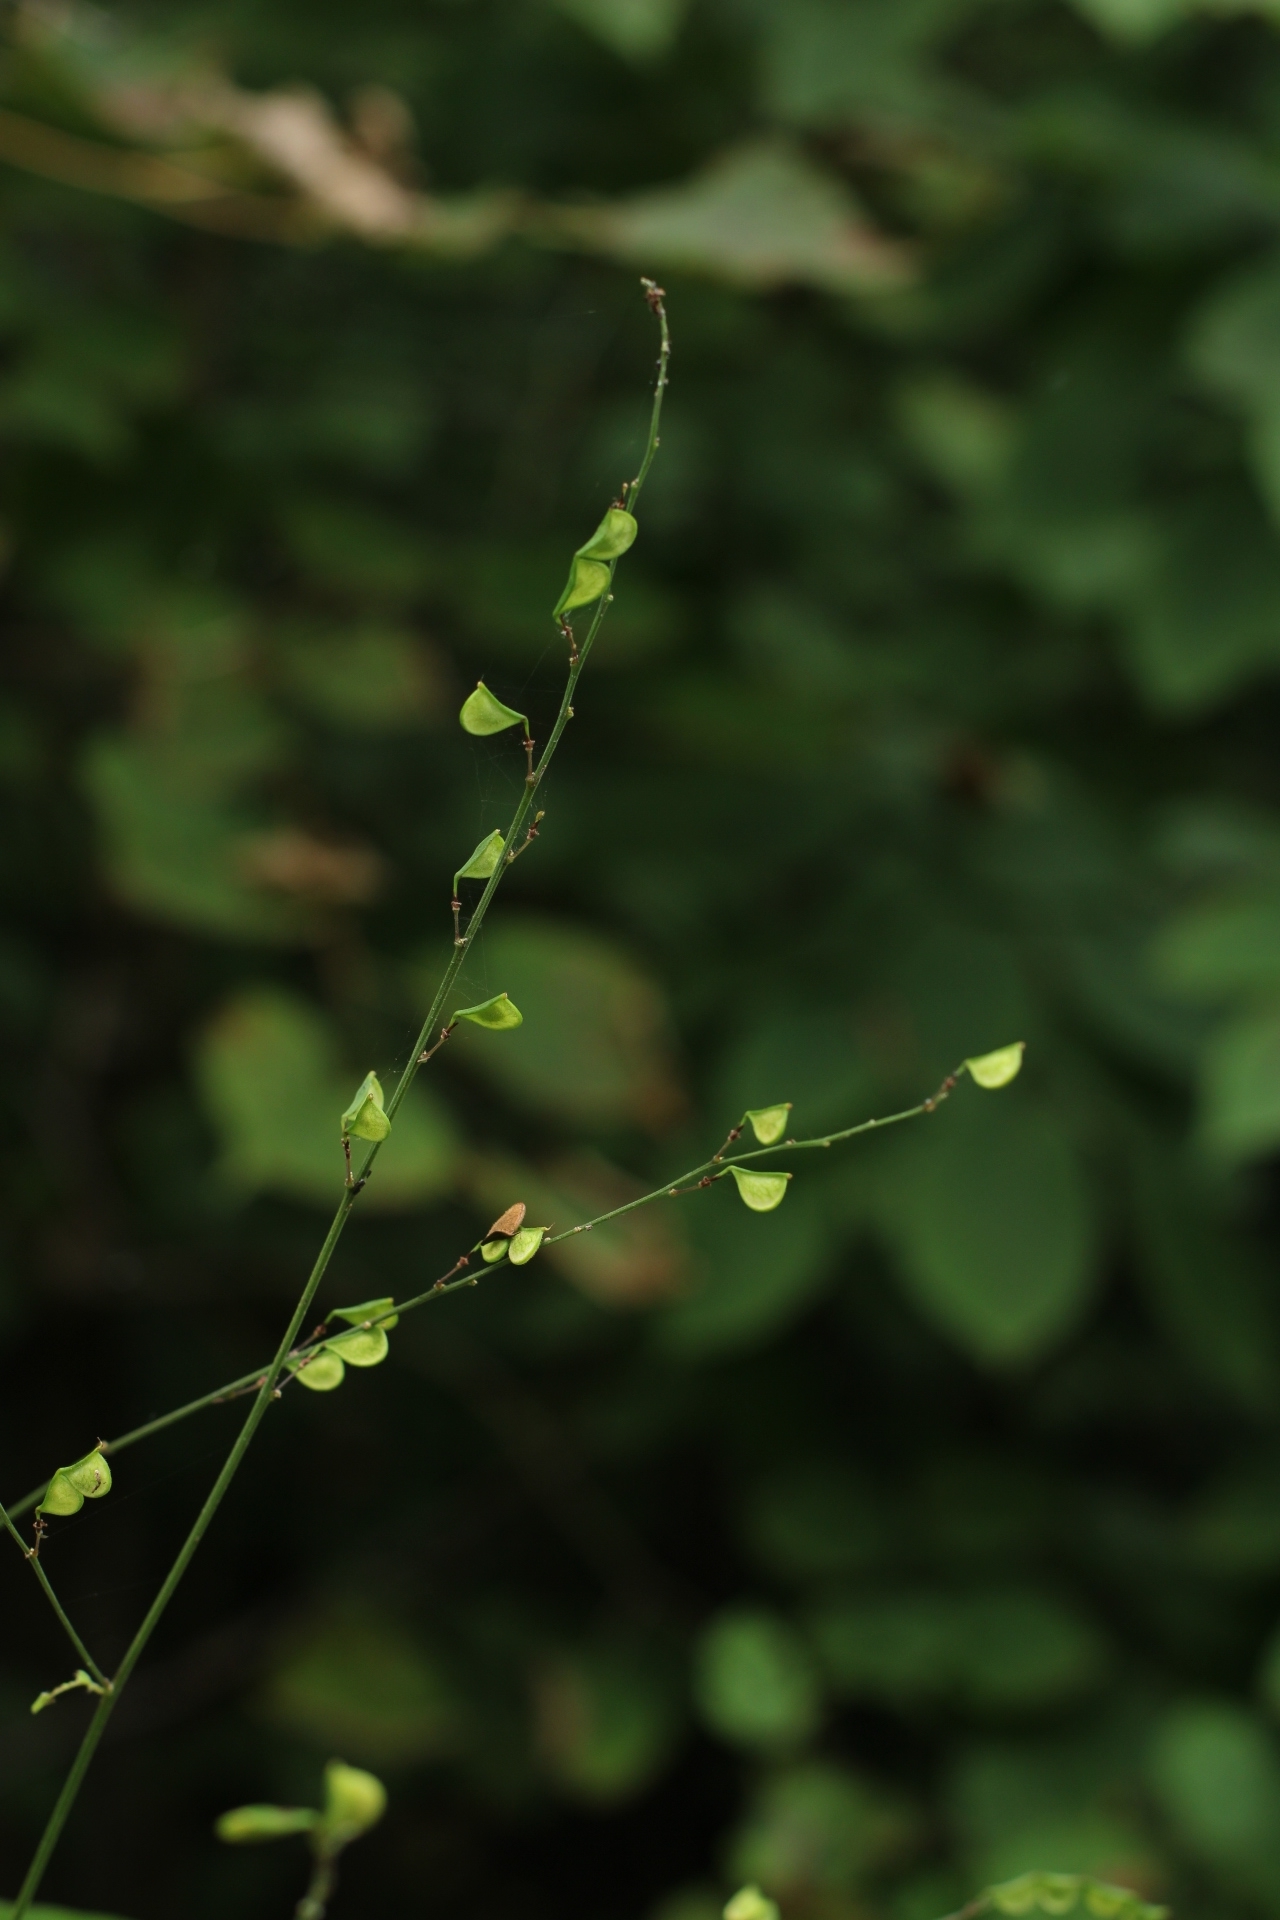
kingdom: Plantae
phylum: Tracheophyta
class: Magnoliopsida
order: Fabales
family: Fabaceae
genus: Hylodesmum
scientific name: Hylodesmum podocarpum
